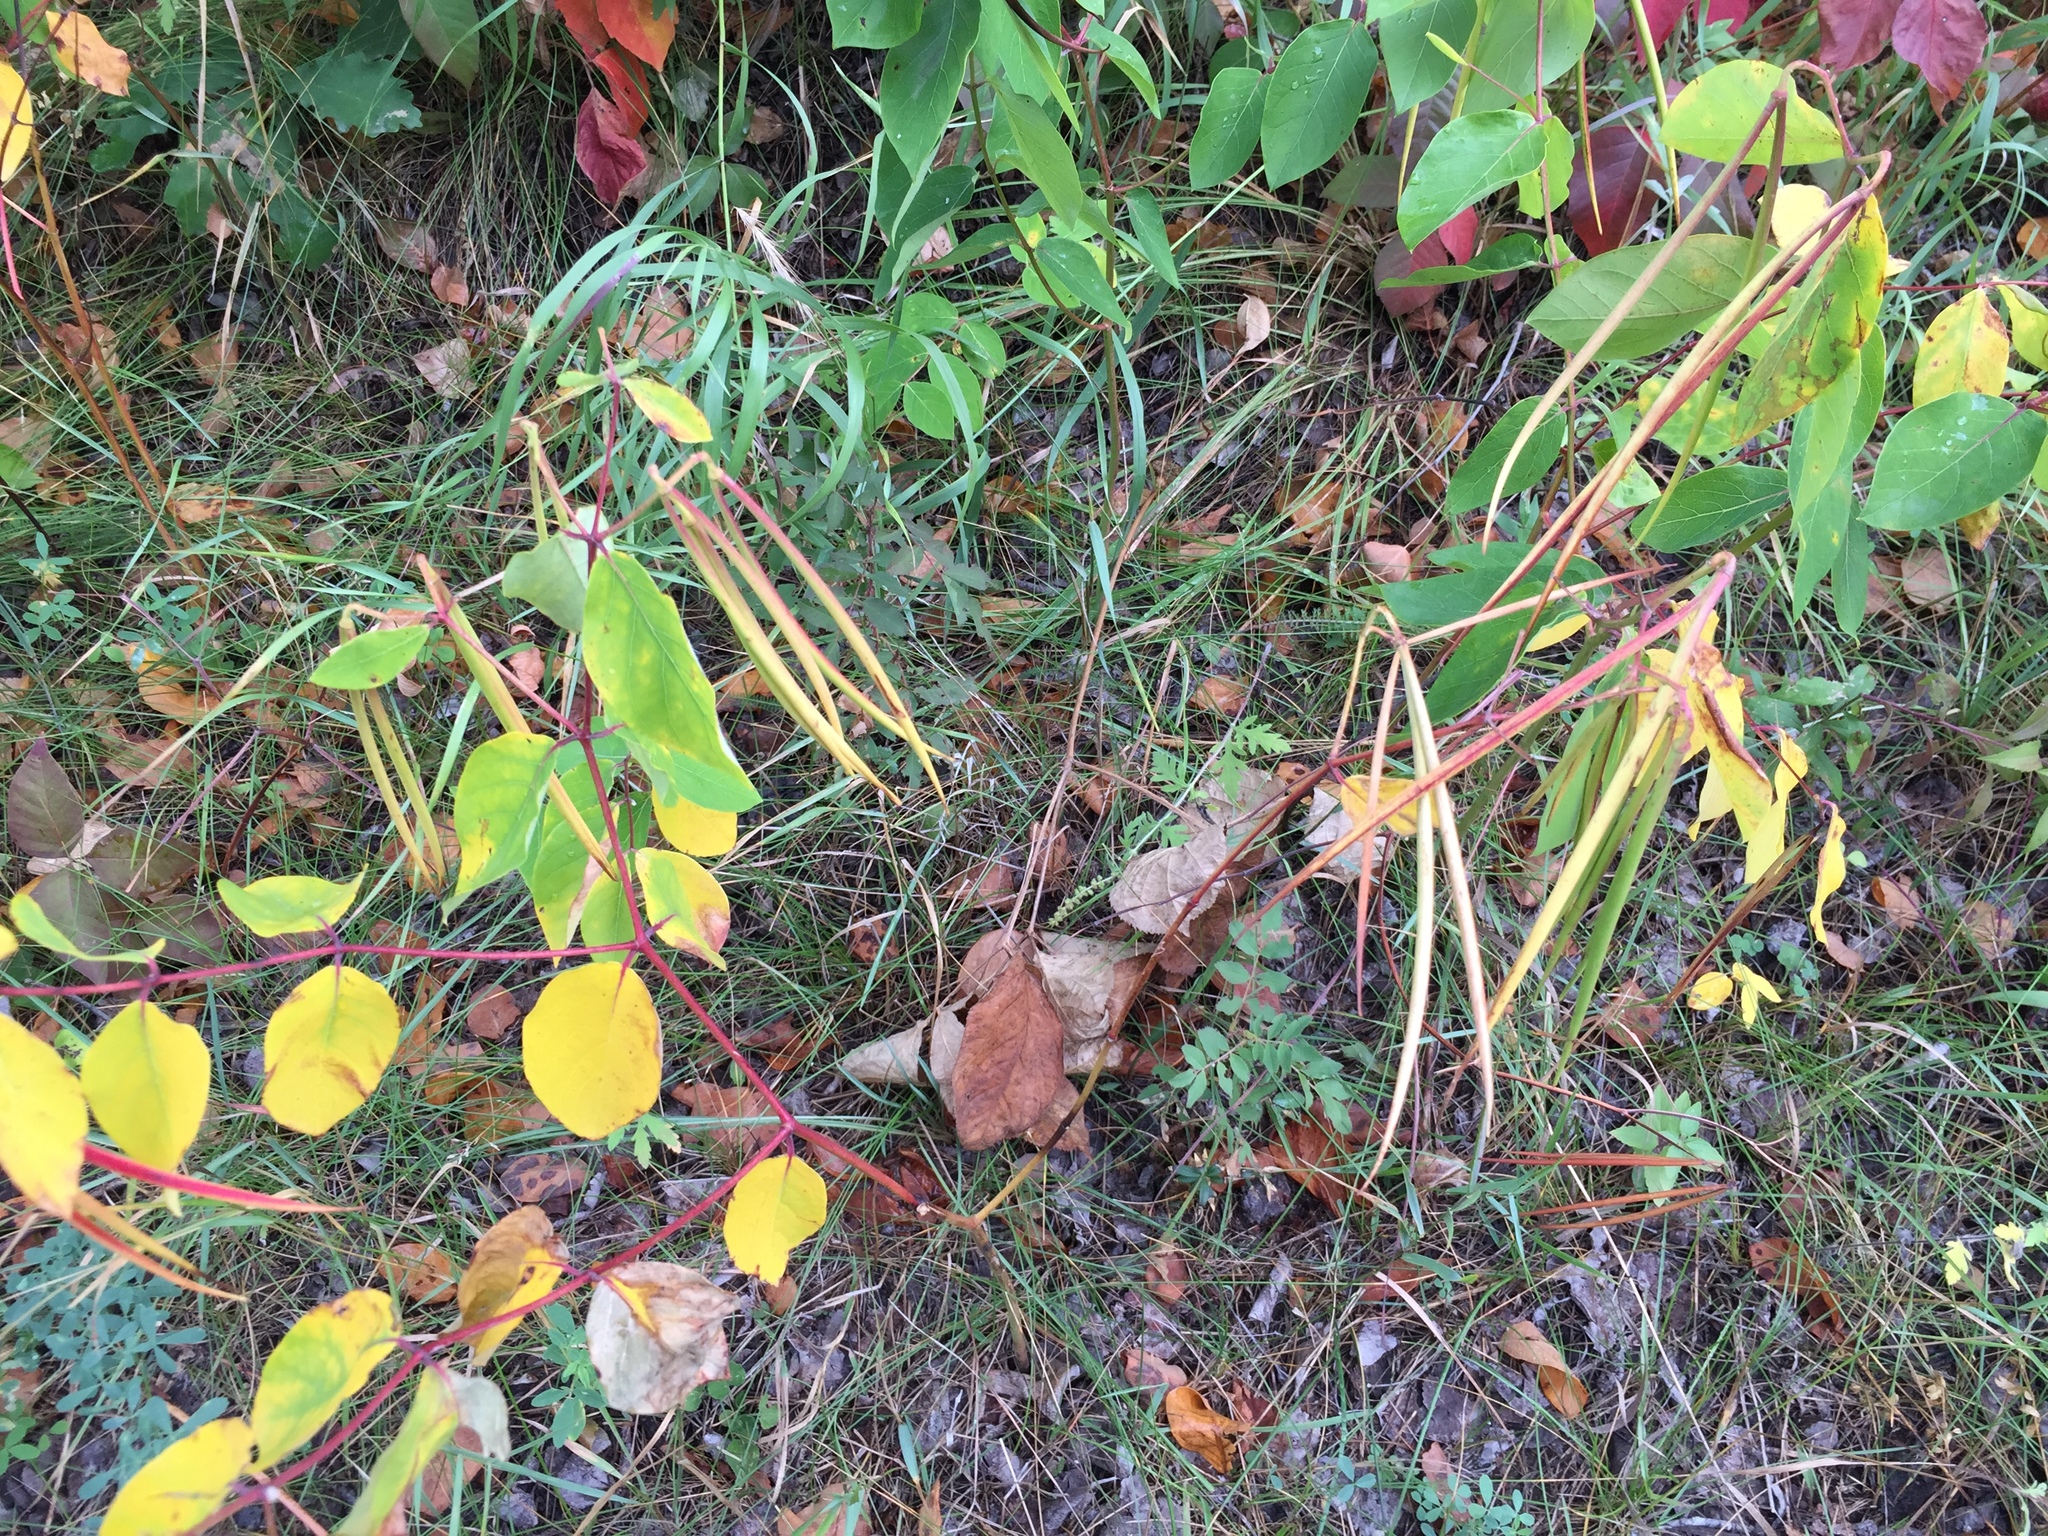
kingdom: Plantae
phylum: Tracheophyta
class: Magnoliopsida
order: Gentianales
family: Apocynaceae
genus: Apocynum
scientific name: Apocynum androsaemifolium
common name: Spreading dogbane
